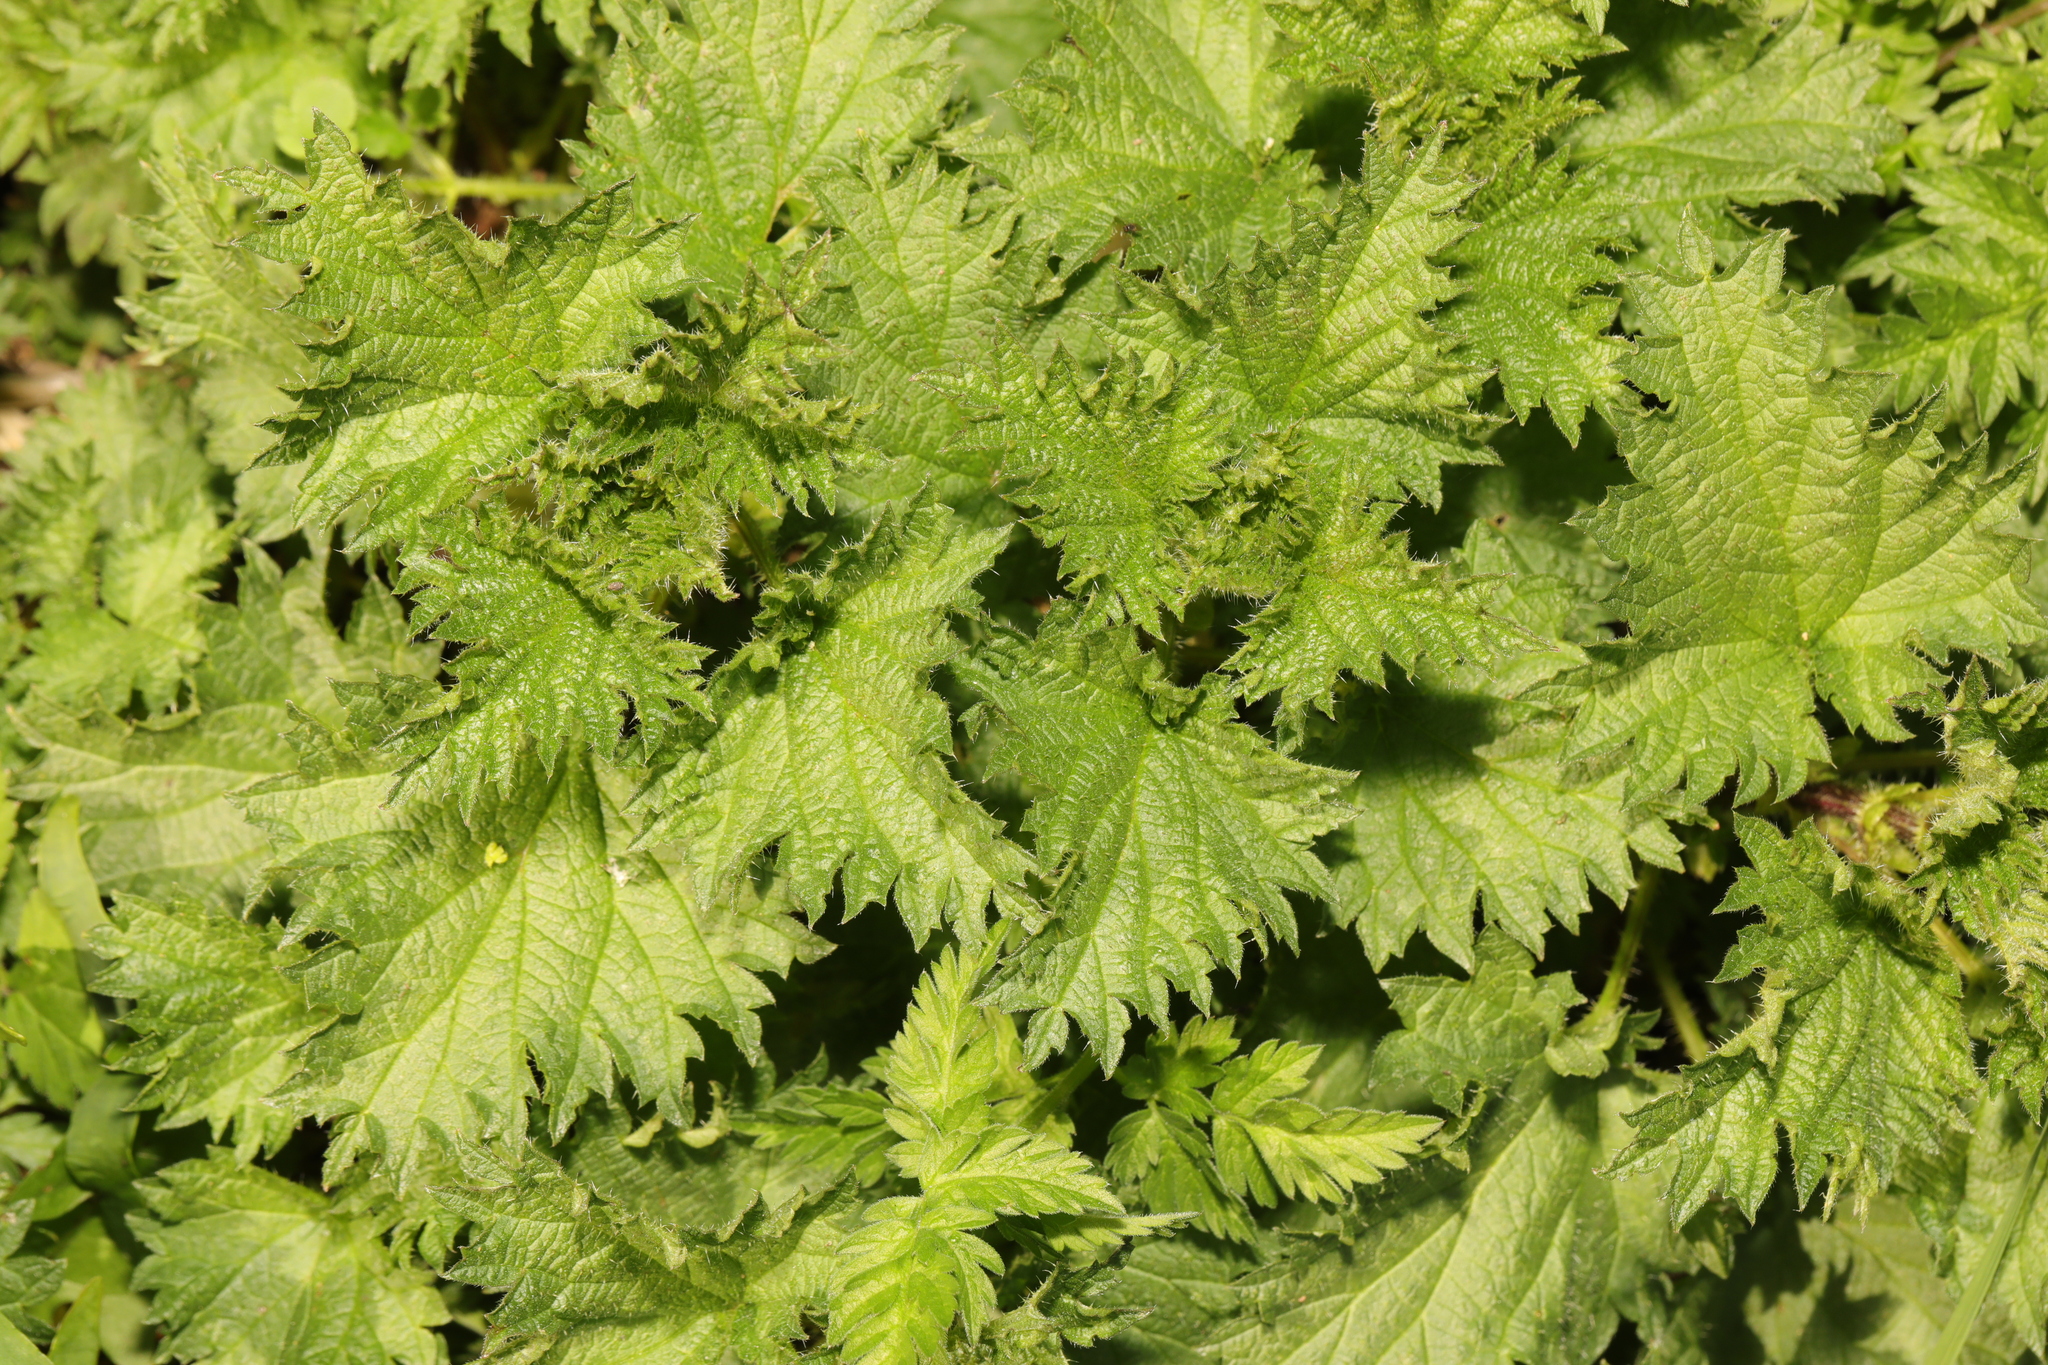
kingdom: Plantae
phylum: Tracheophyta
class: Magnoliopsida
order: Rosales
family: Urticaceae
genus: Urtica
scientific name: Urtica dioica
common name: Common nettle
